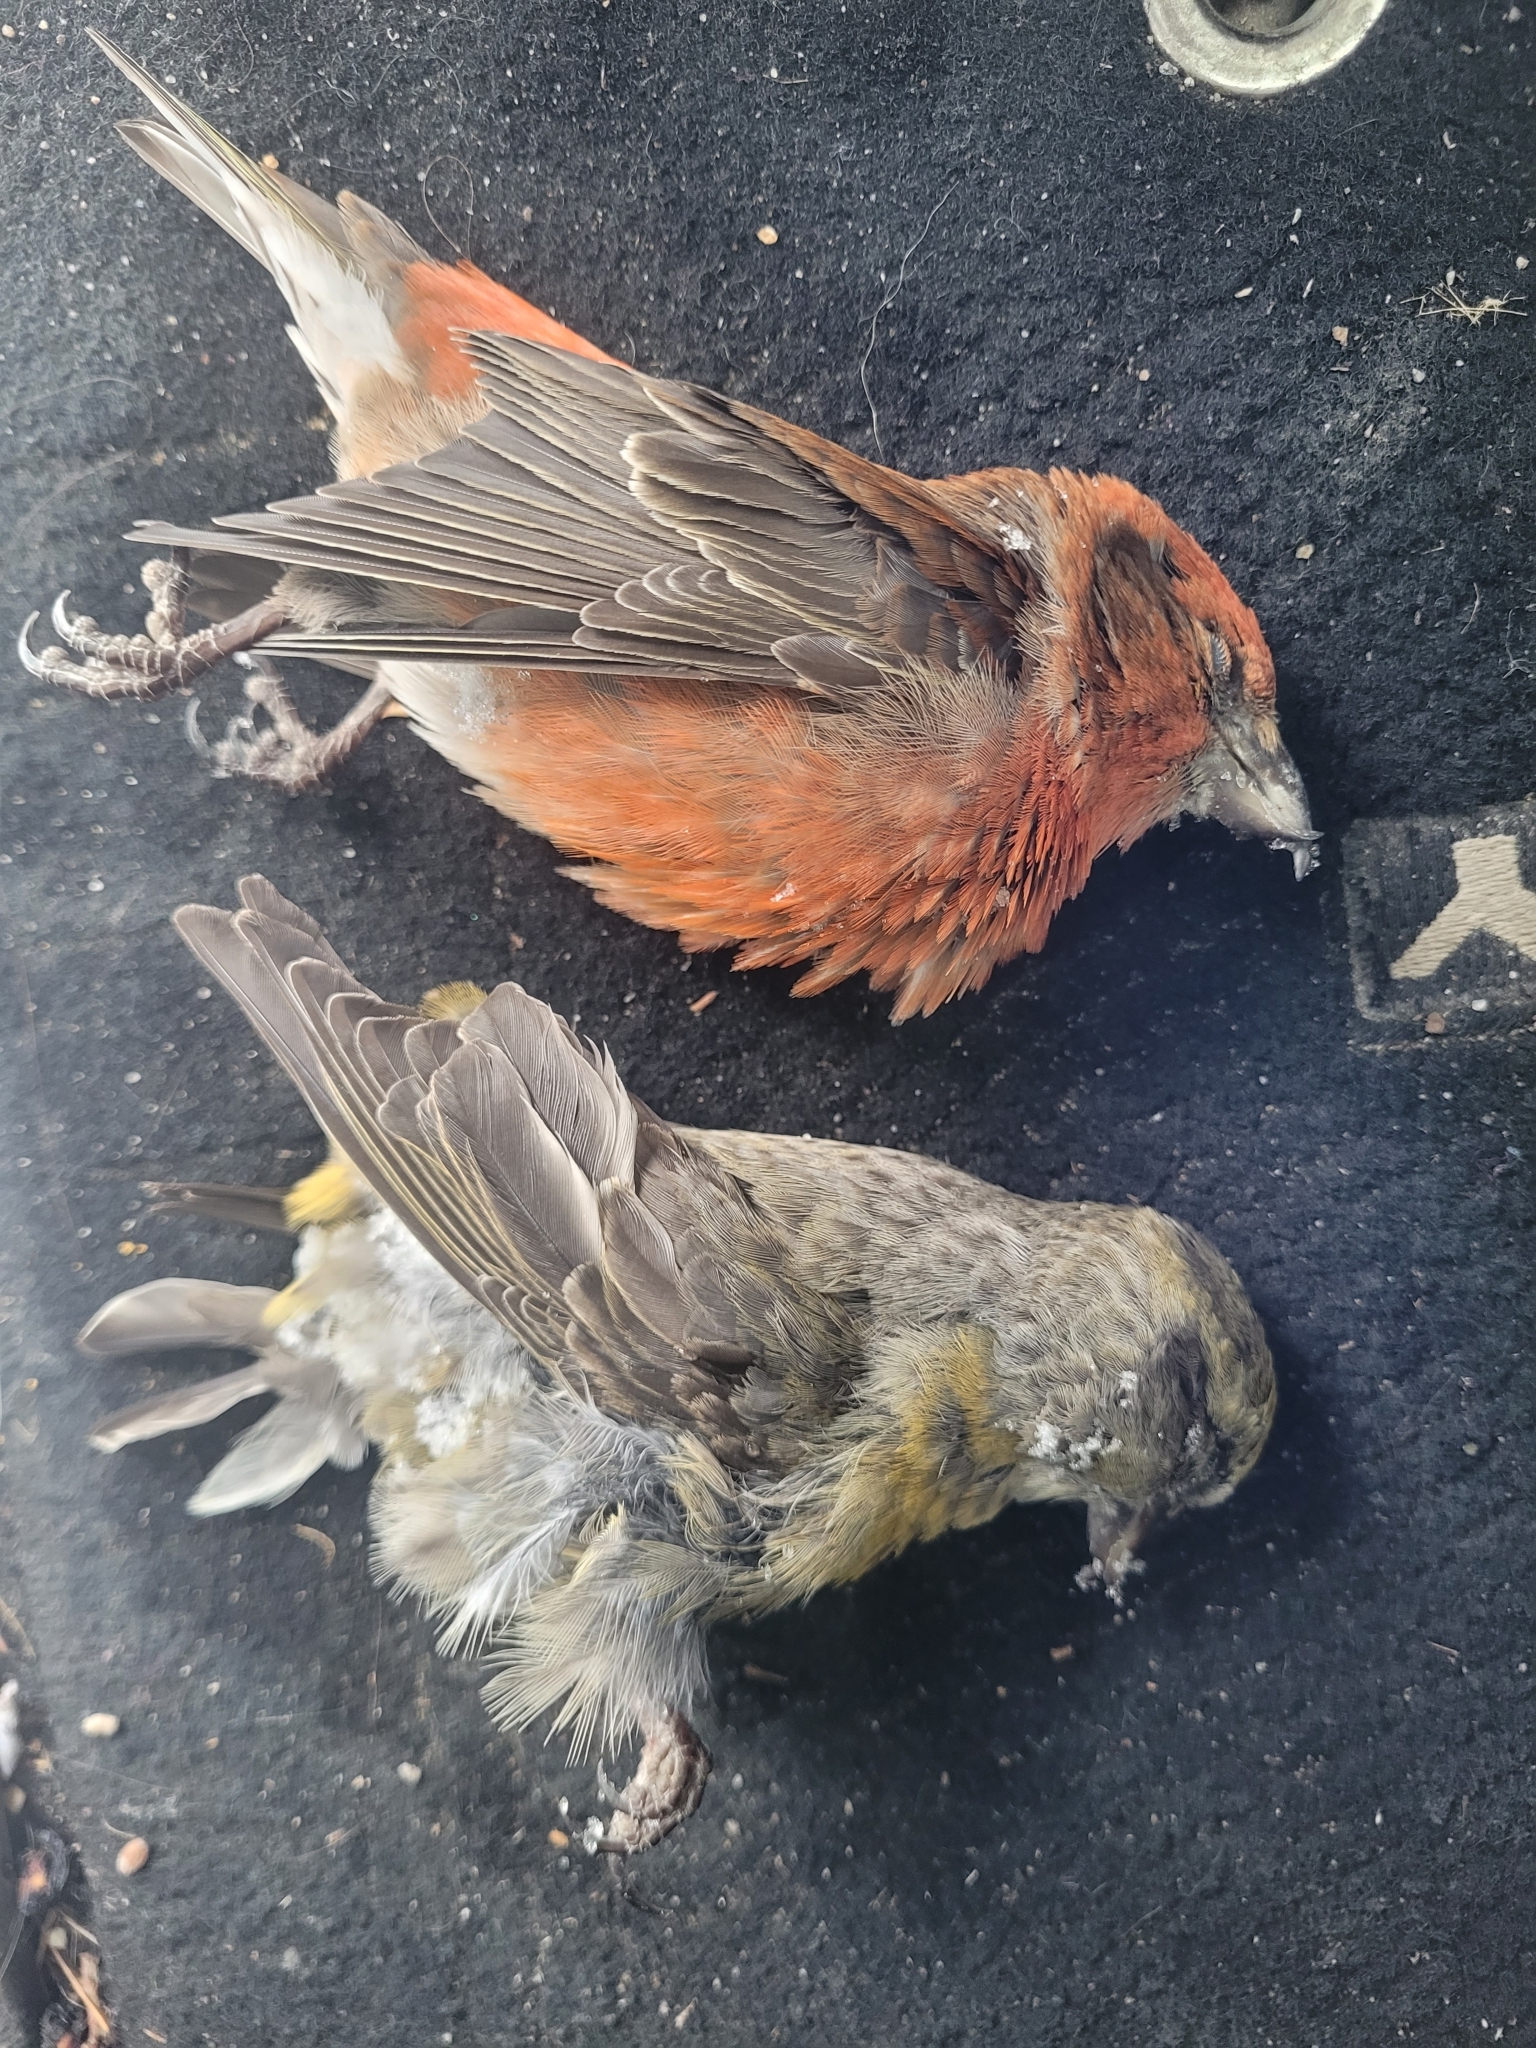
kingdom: Animalia
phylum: Chordata
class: Aves
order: Passeriformes
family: Fringillidae
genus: Loxia
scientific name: Loxia curvirostra
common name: Red crossbill
